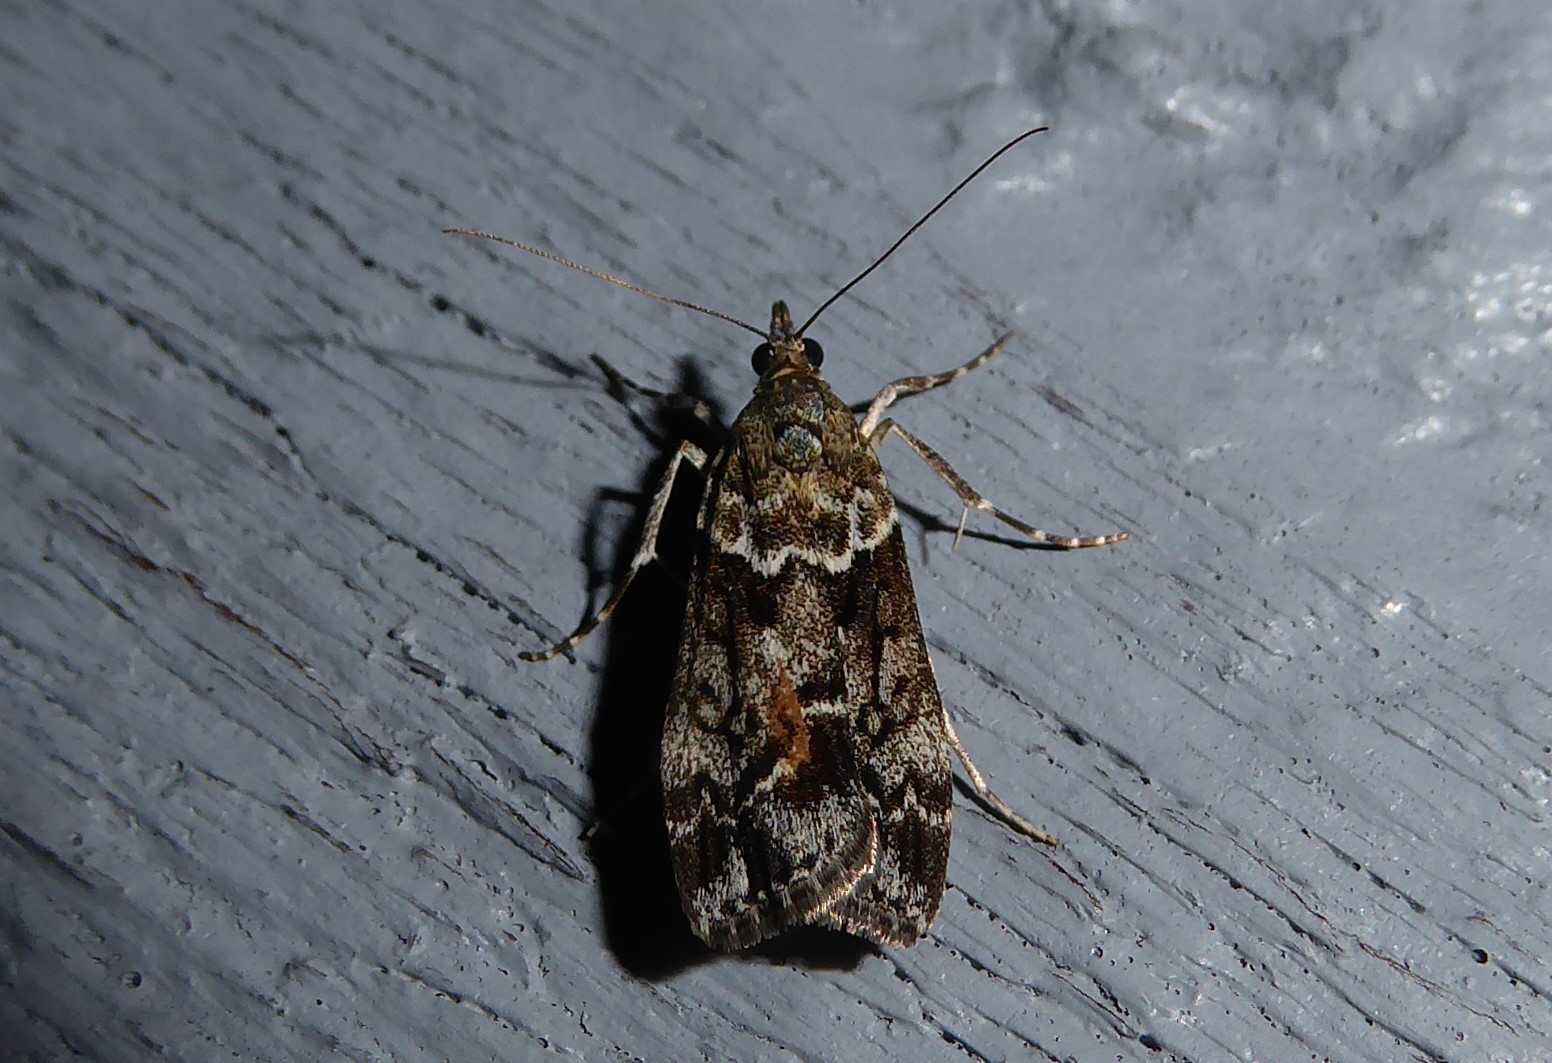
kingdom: Animalia
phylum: Arthropoda
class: Insecta
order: Lepidoptera
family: Crambidae
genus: Eudonia
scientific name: Eudonia submarginalis
